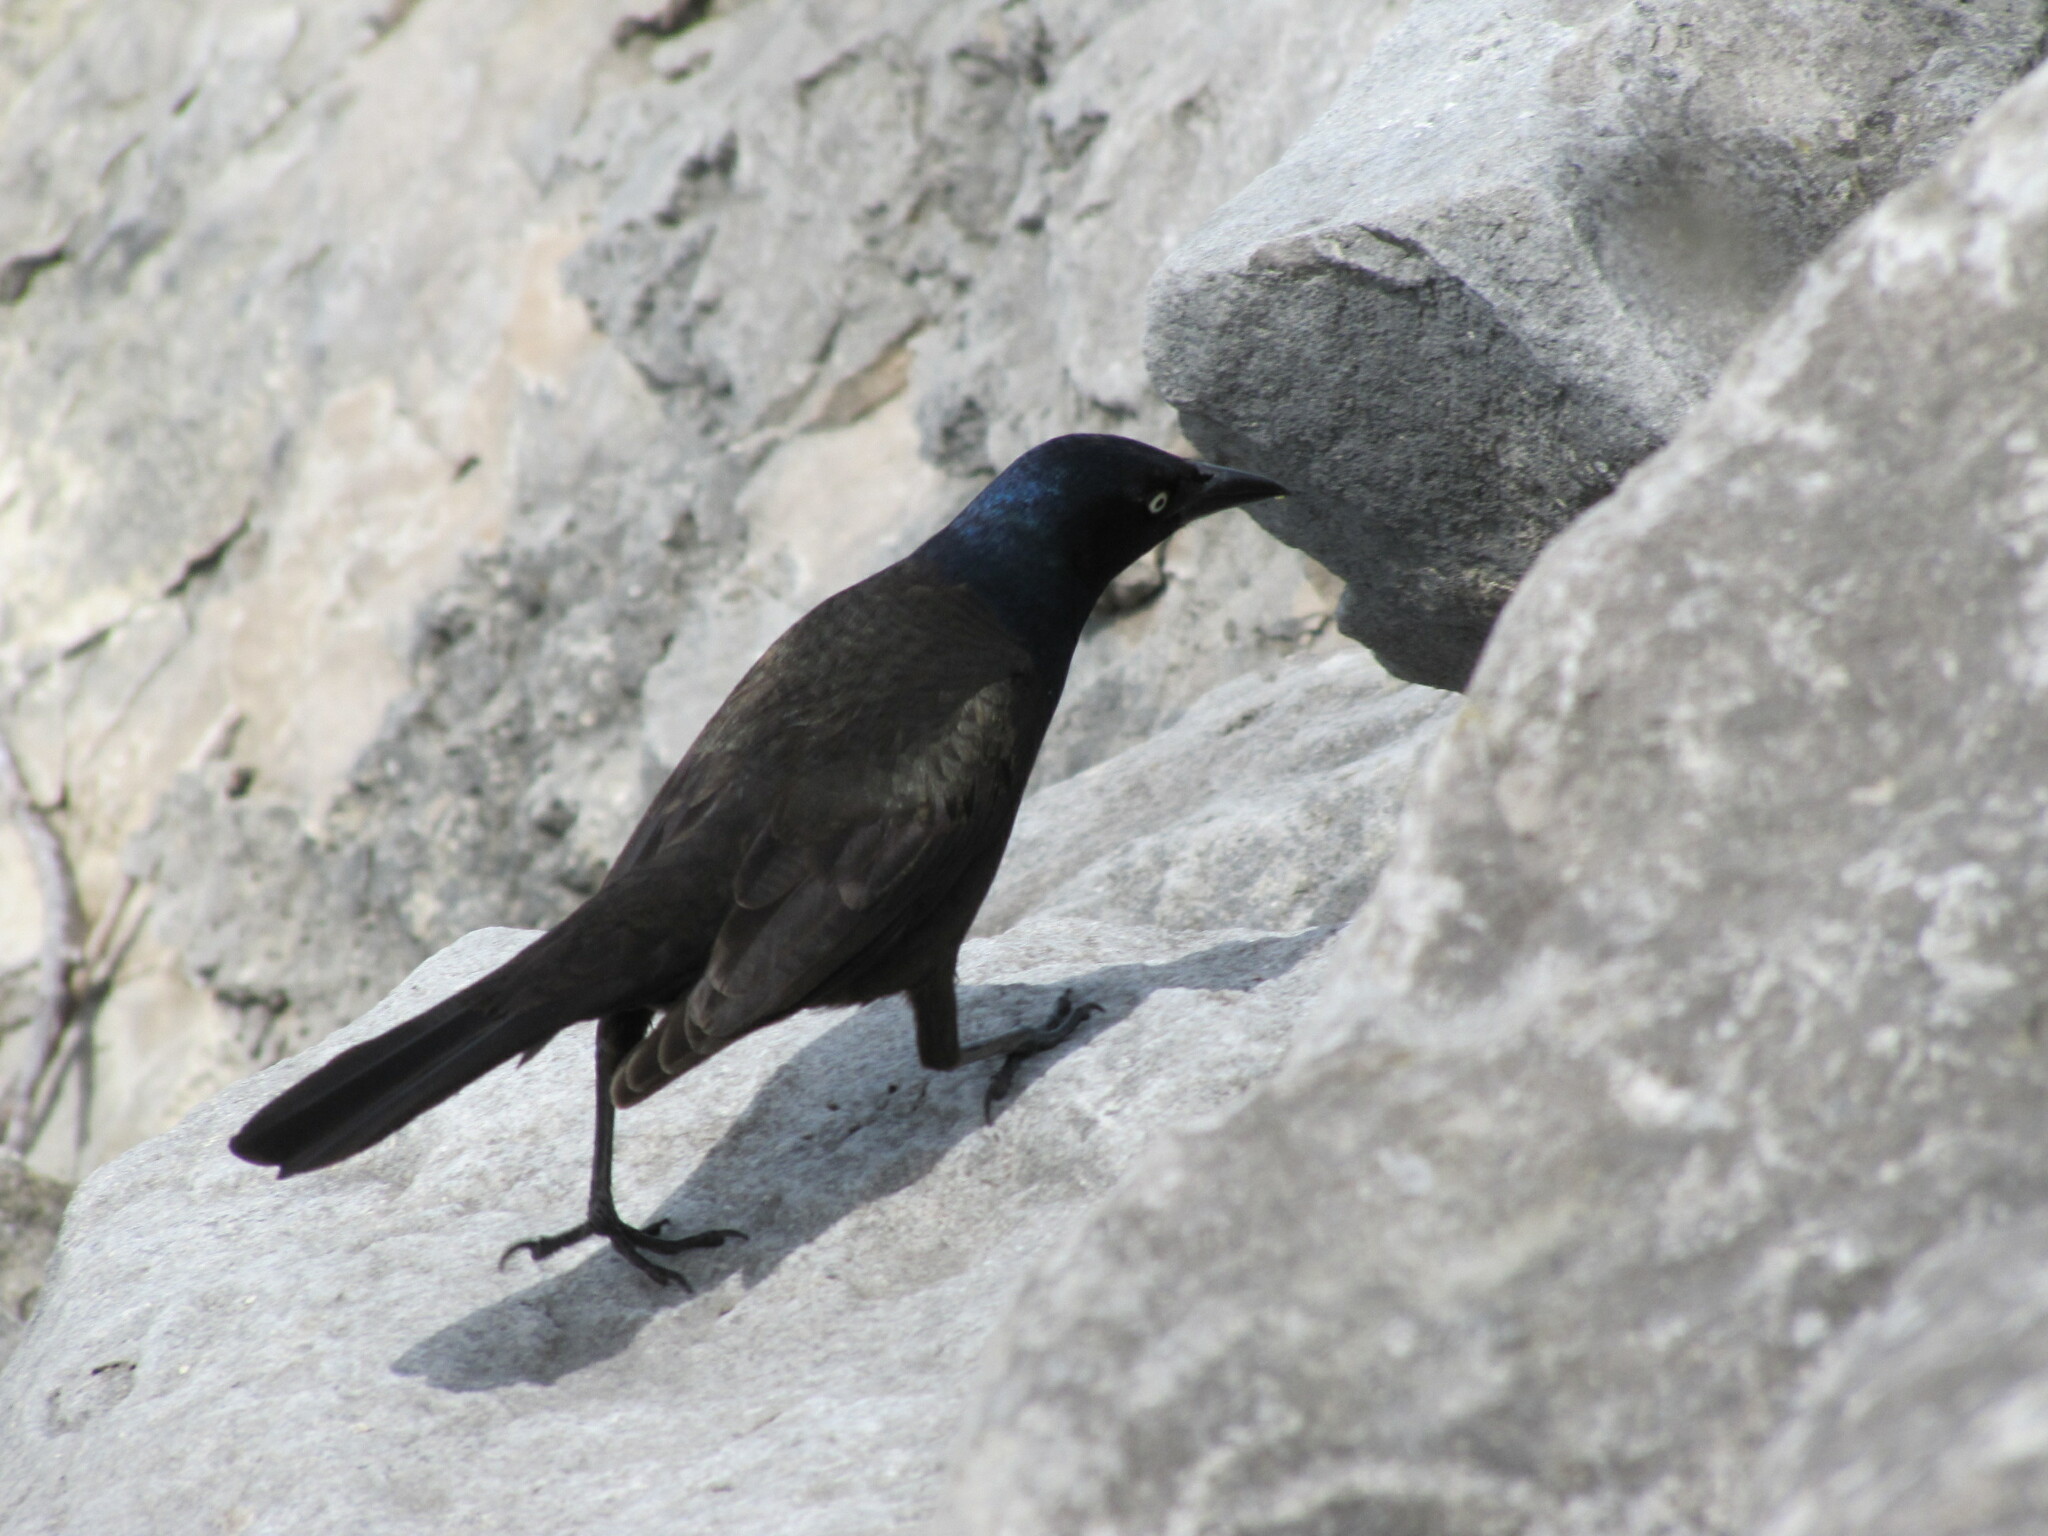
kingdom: Animalia
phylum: Chordata
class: Aves
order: Passeriformes
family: Icteridae
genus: Quiscalus
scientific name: Quiscalus quiscula
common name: Common grackle
